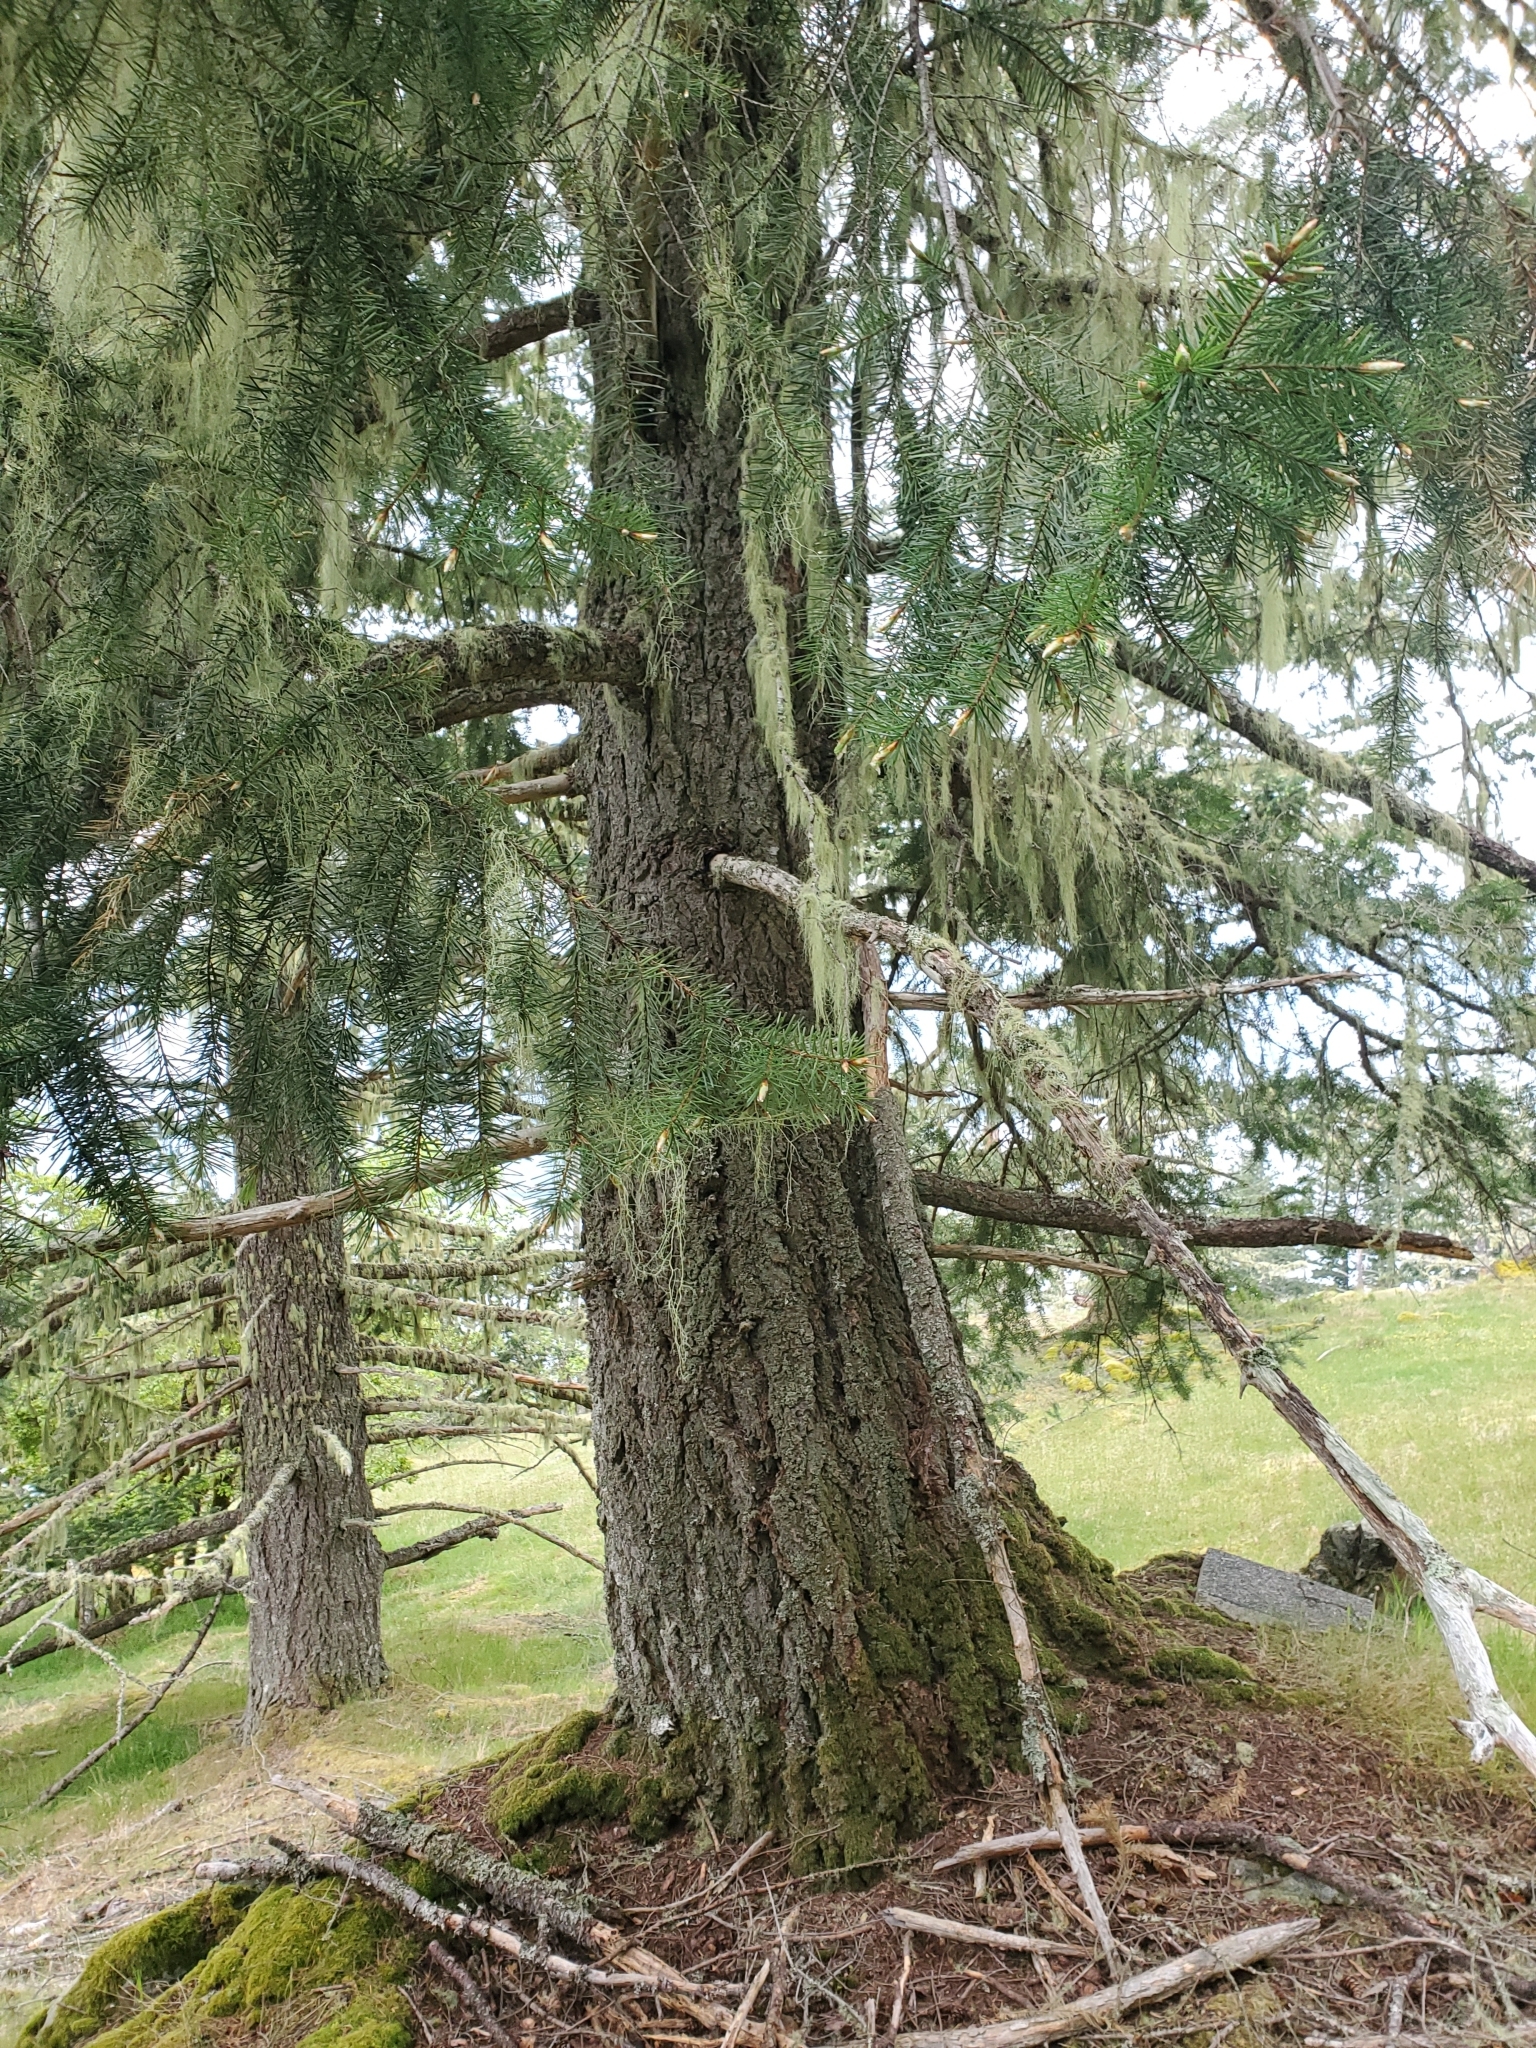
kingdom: Plantae
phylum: Tracheophyta
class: Pinopsida
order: Pinales
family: Pinaceae
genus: Pseudotsuga
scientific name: Pseudotsuga menziesii
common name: Douglas fir
